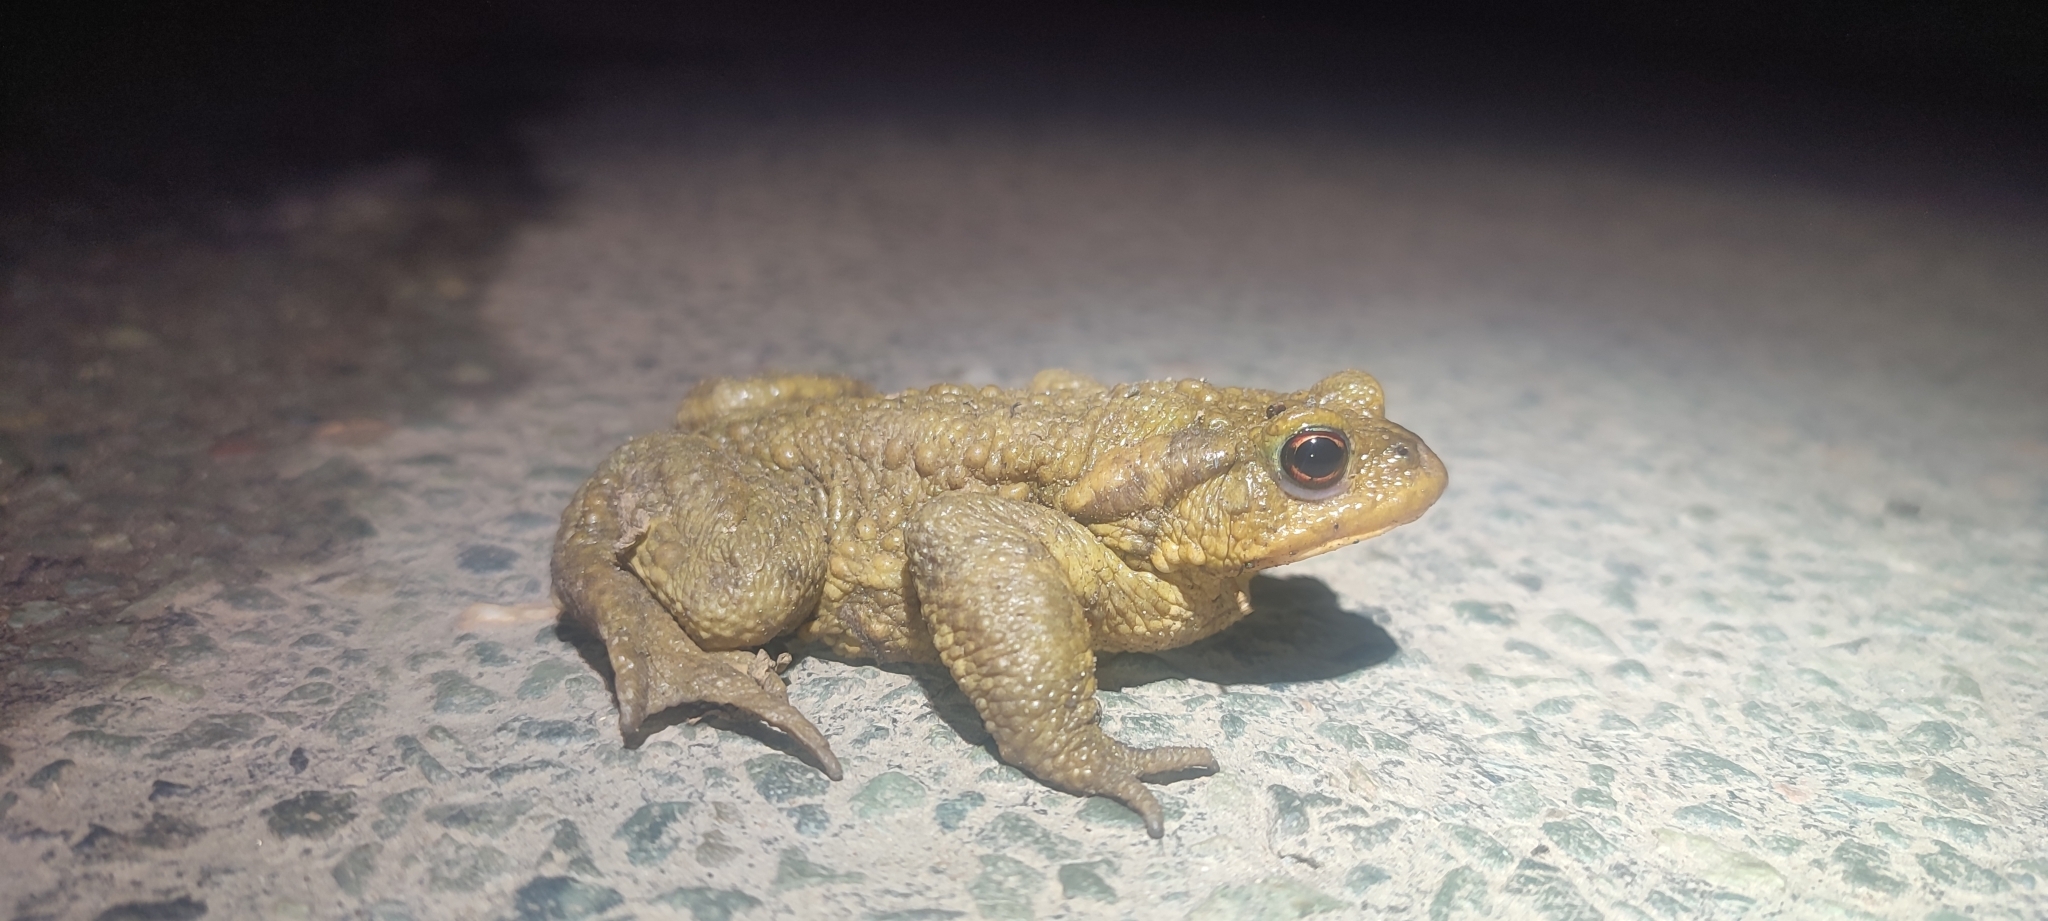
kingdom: Animalia
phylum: Chordata
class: Amphibia
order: Anura
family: Bufonidae
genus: Bufo
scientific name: Bufo spinosus
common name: Western common toad
